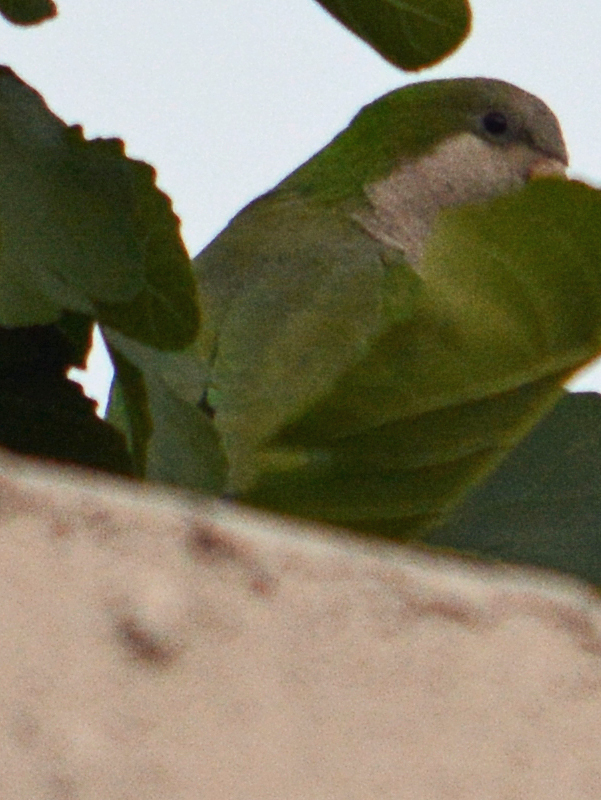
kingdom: Animalia
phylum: Chordata
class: Aves
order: Psittaciformes
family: Psittacidae
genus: Myiopsitta
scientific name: Myiopsitta monachus
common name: Monk parakeet
